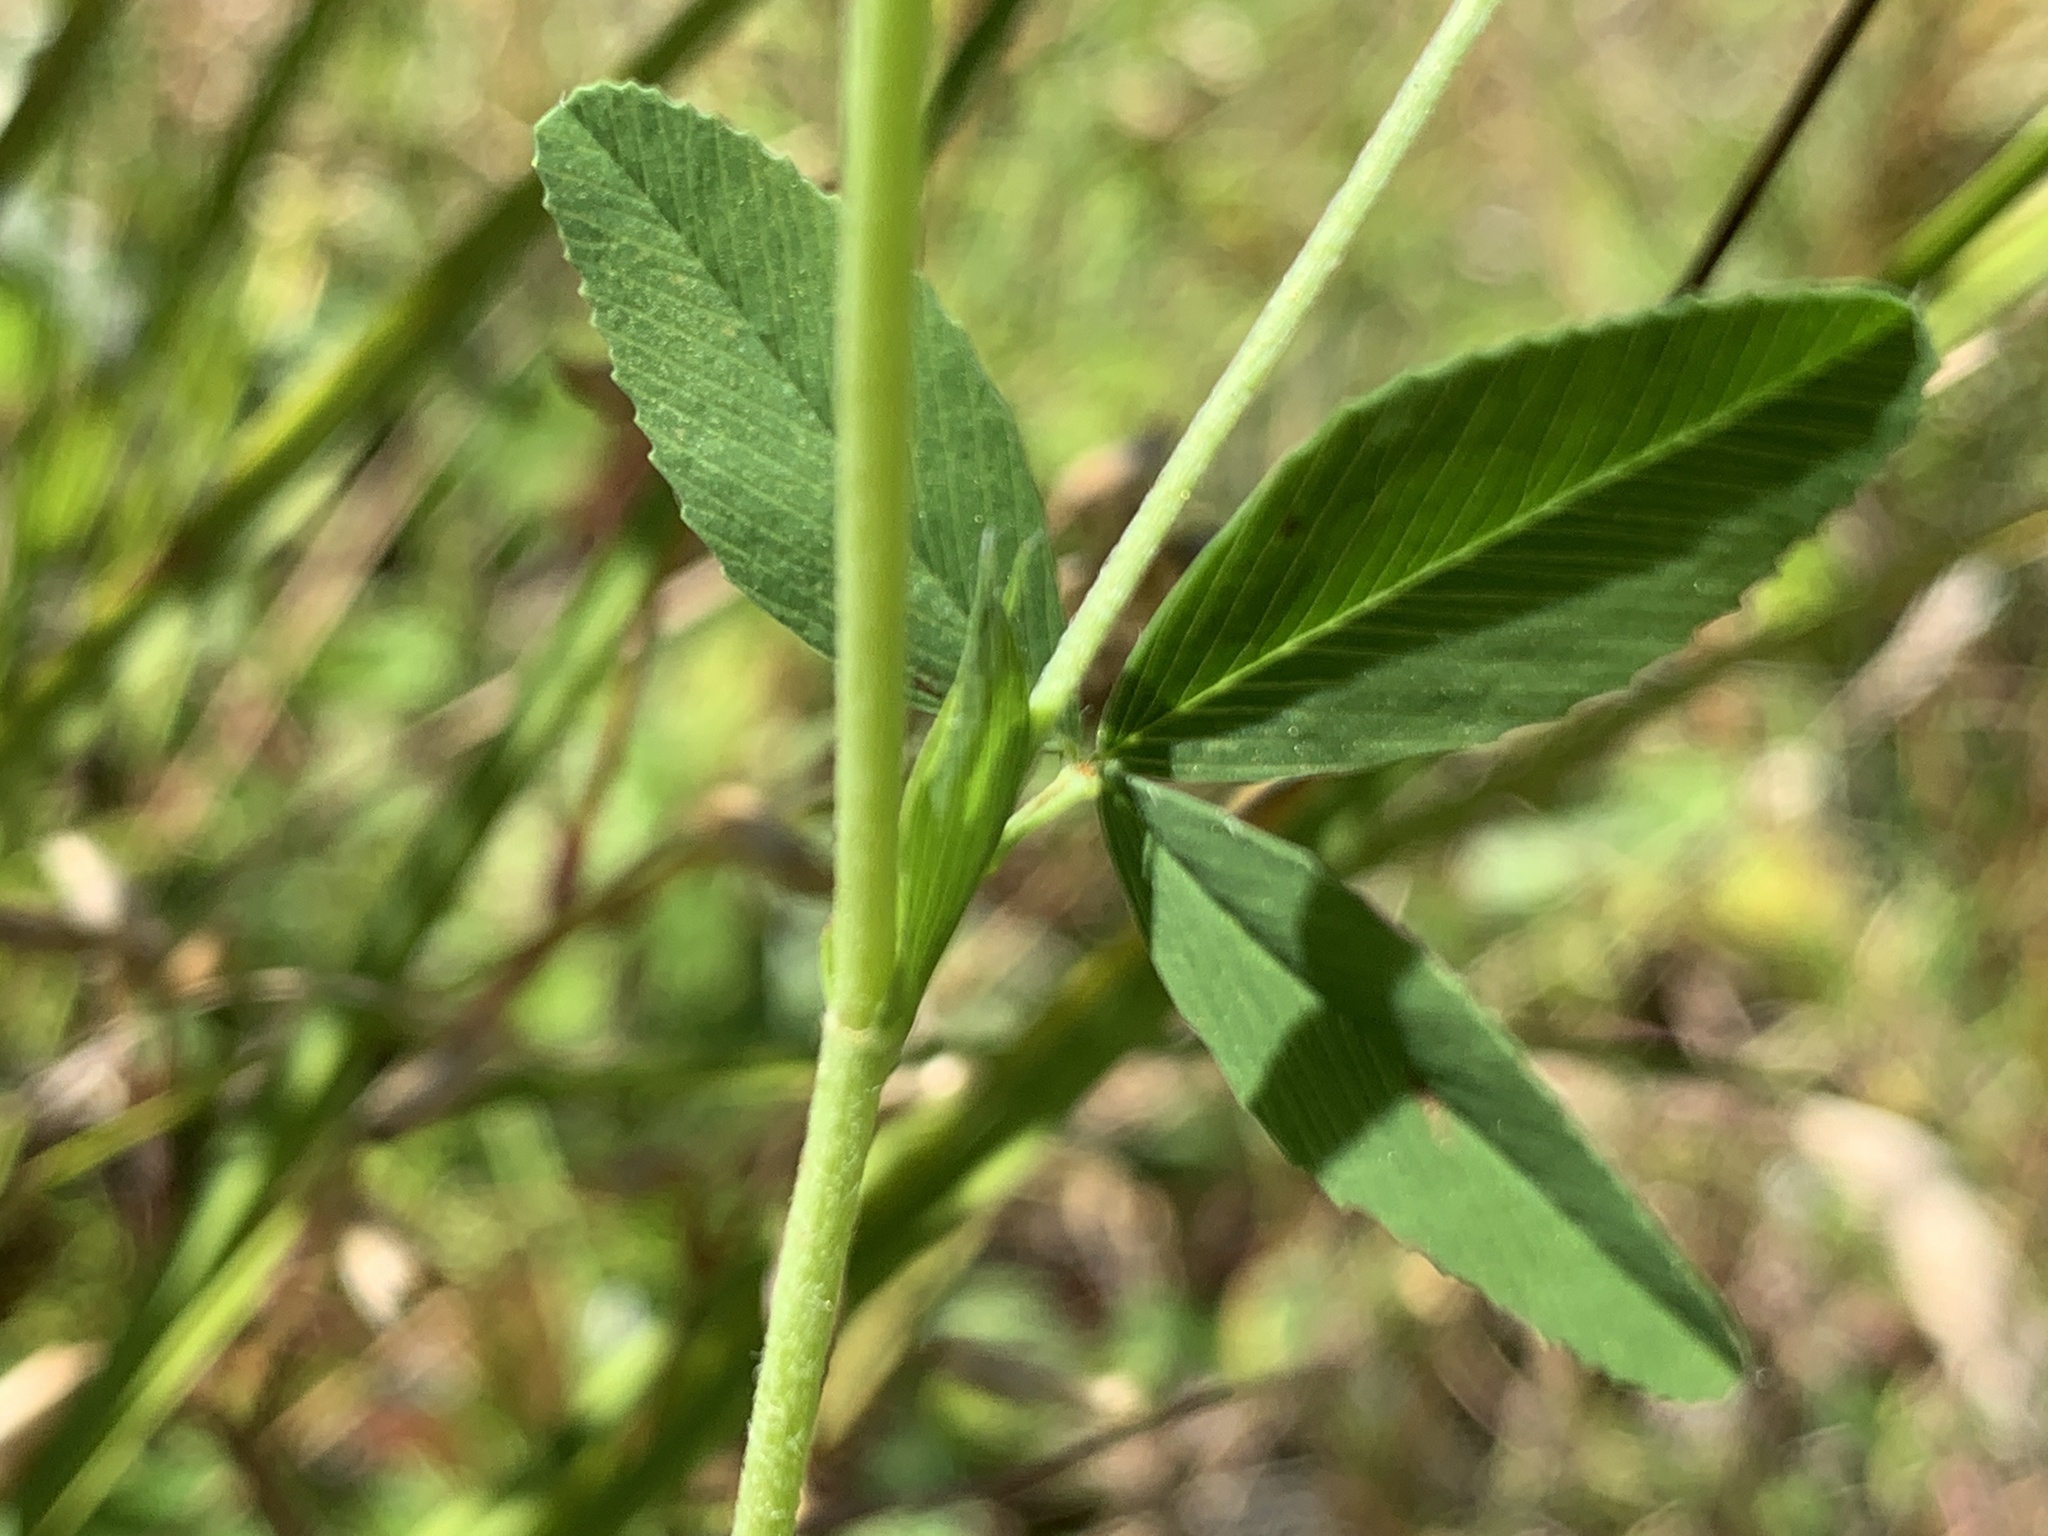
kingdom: Plantae
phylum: Tracheophyta
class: Magnoliopsida
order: Fabales
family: Fabaceae
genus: Trifolium
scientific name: Trifolium aureum
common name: Golden clover
